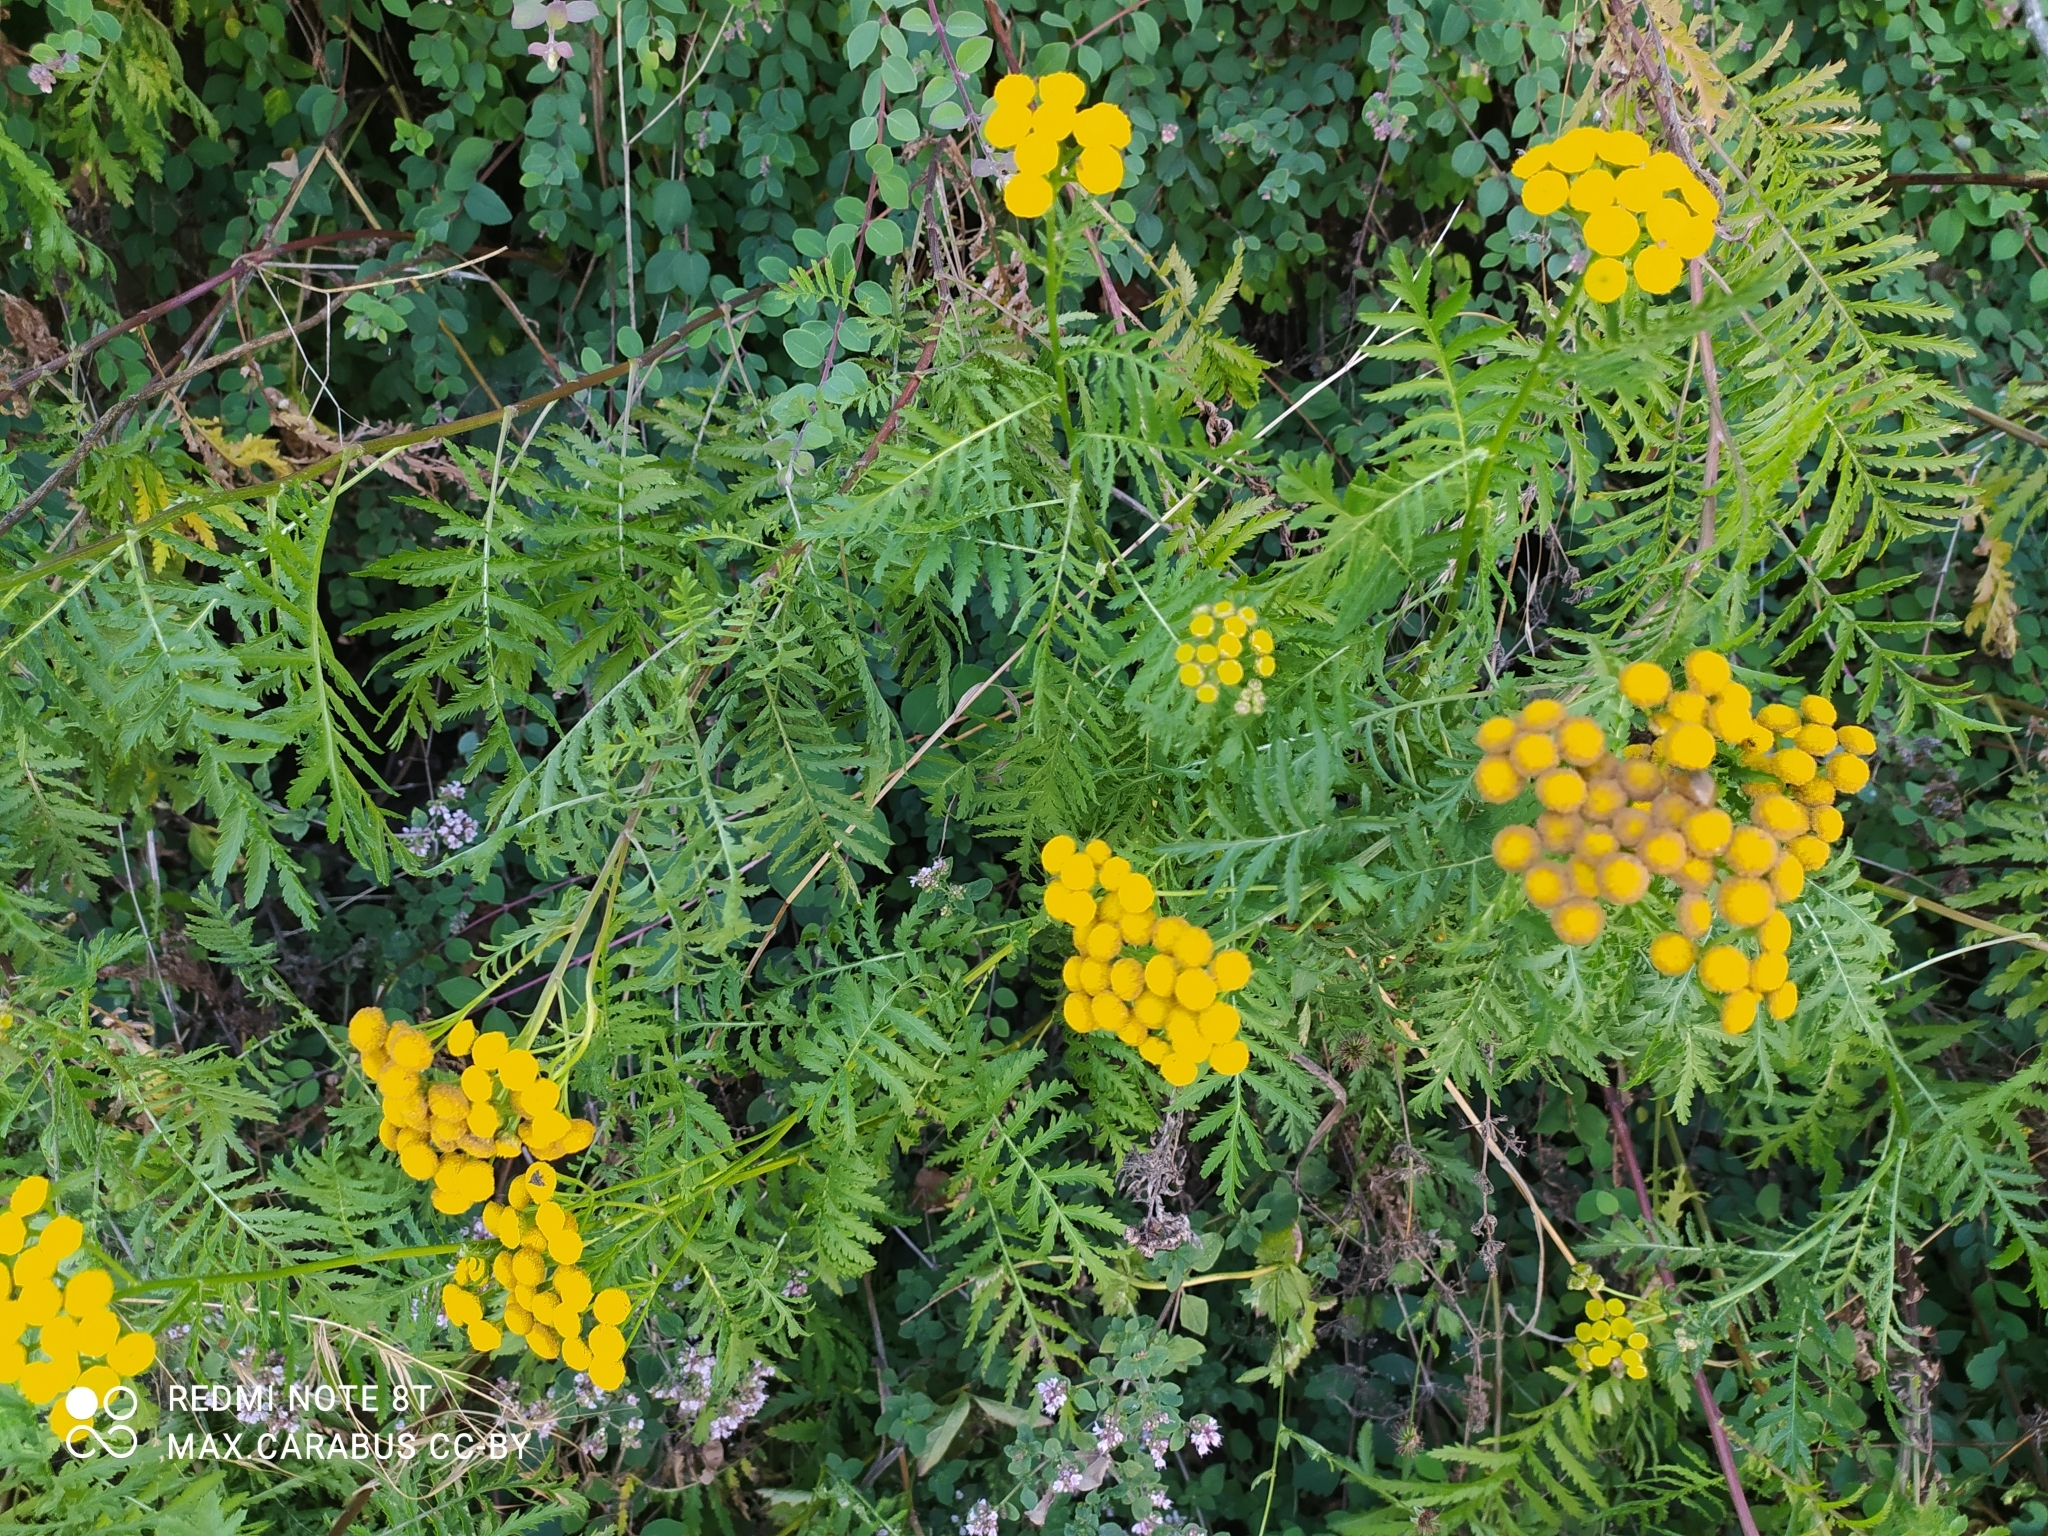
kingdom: Plantae
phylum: Tracheophyta
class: Magnoliopsida
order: Asterales
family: Asteraceae
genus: Tanacetum
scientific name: Tanacetum vulgare
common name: Common tansy
